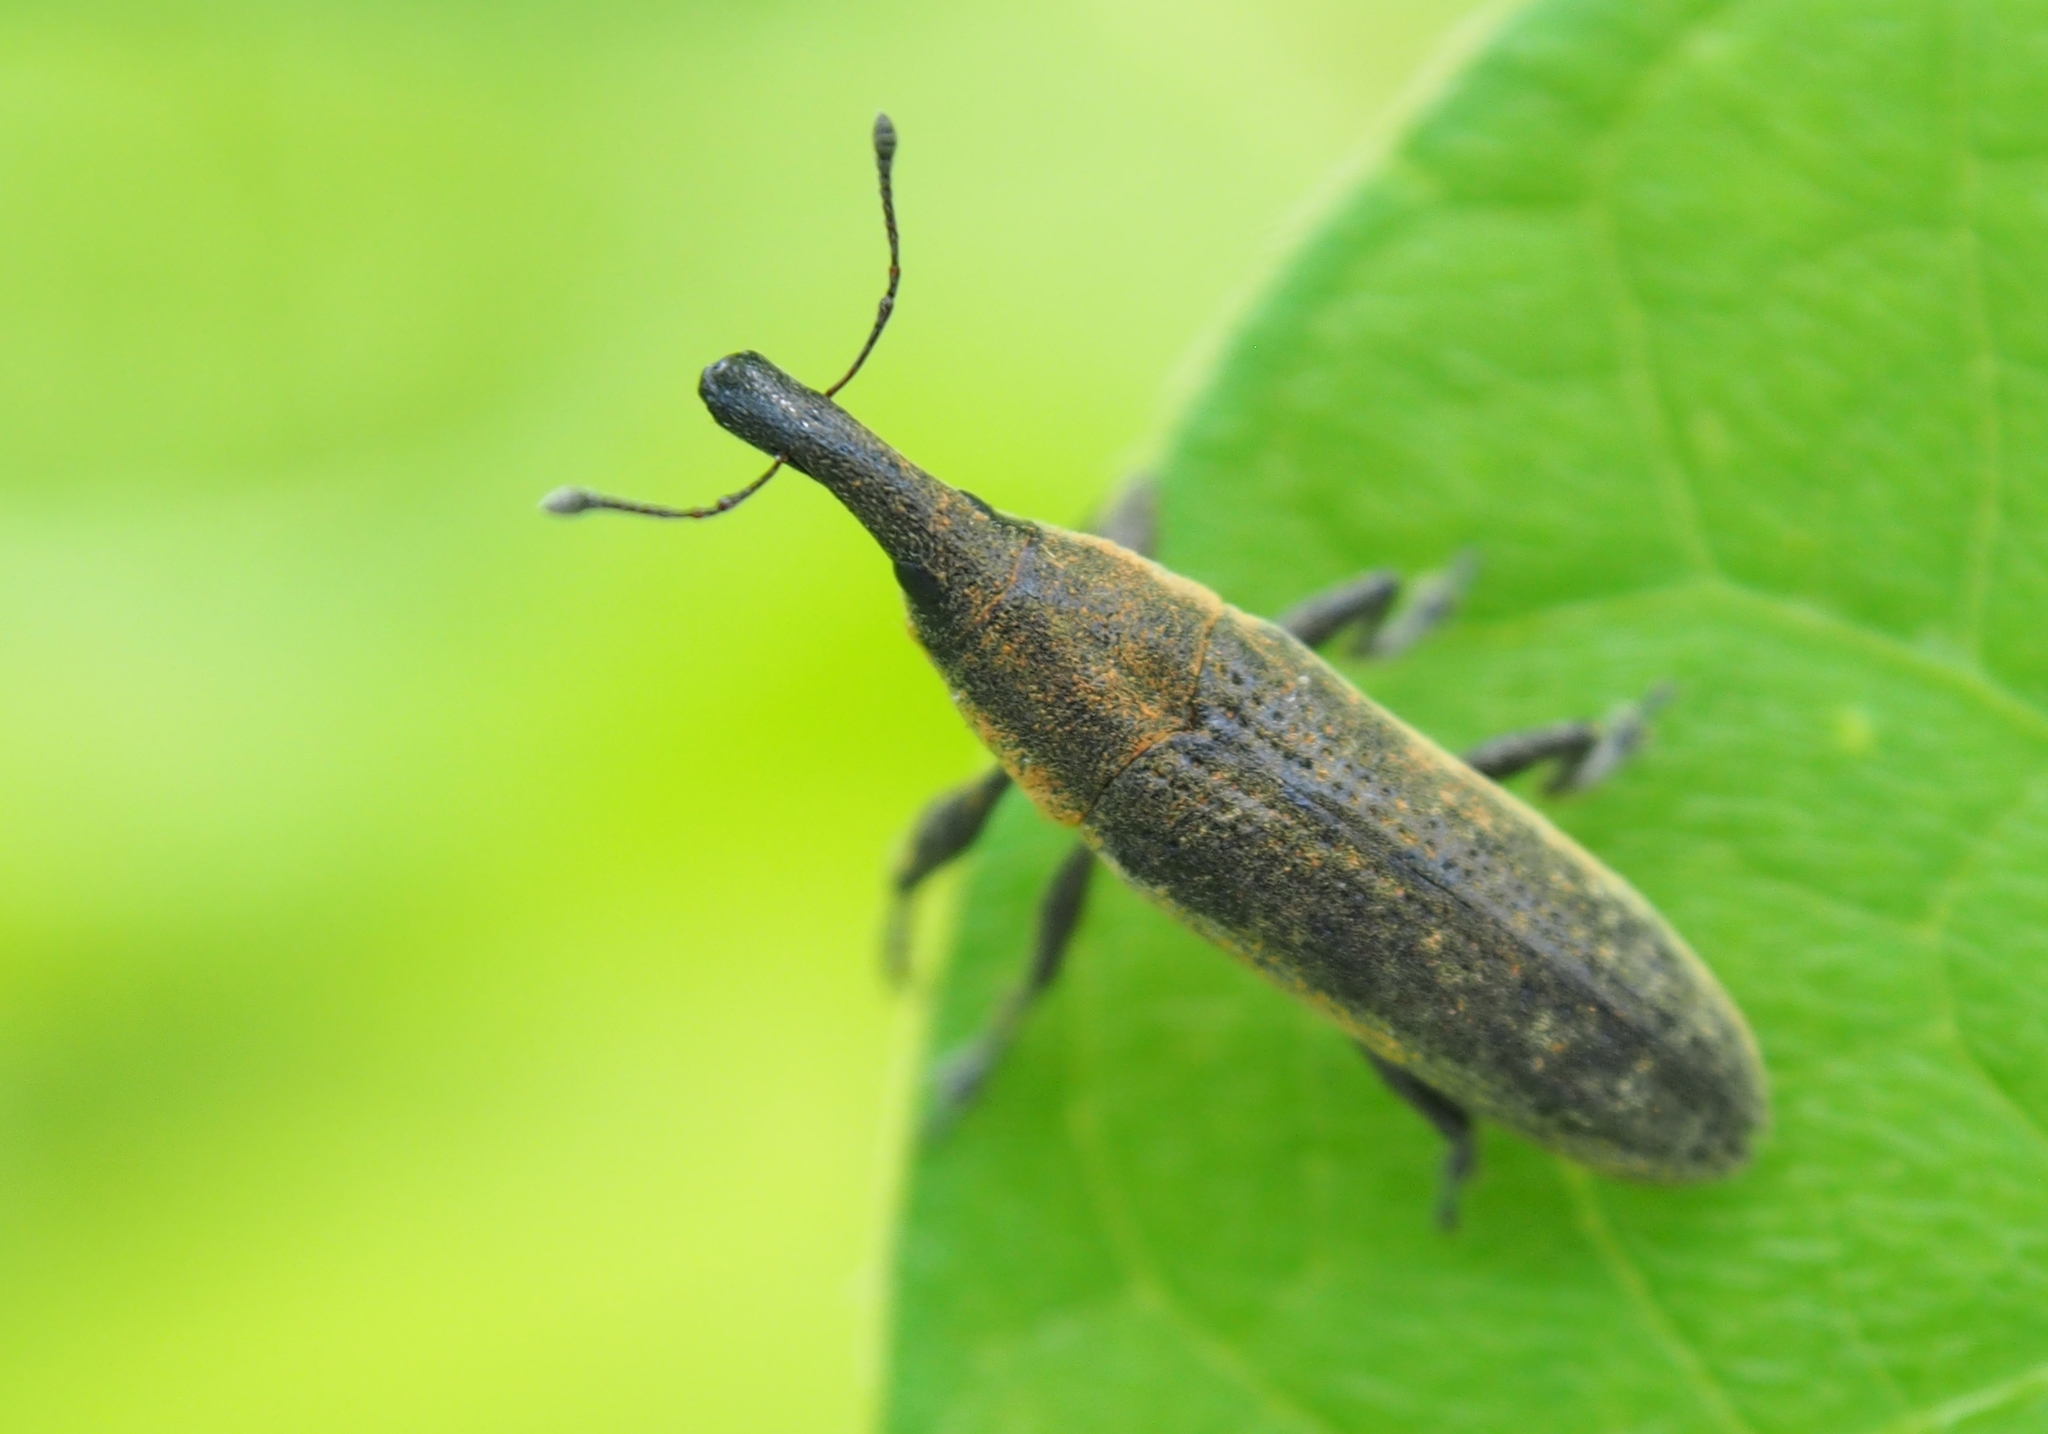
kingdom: Animalia
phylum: Arthropoda
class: Insecta
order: Coleoptera
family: Curculionidae
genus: Lixus
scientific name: Lixus macer
